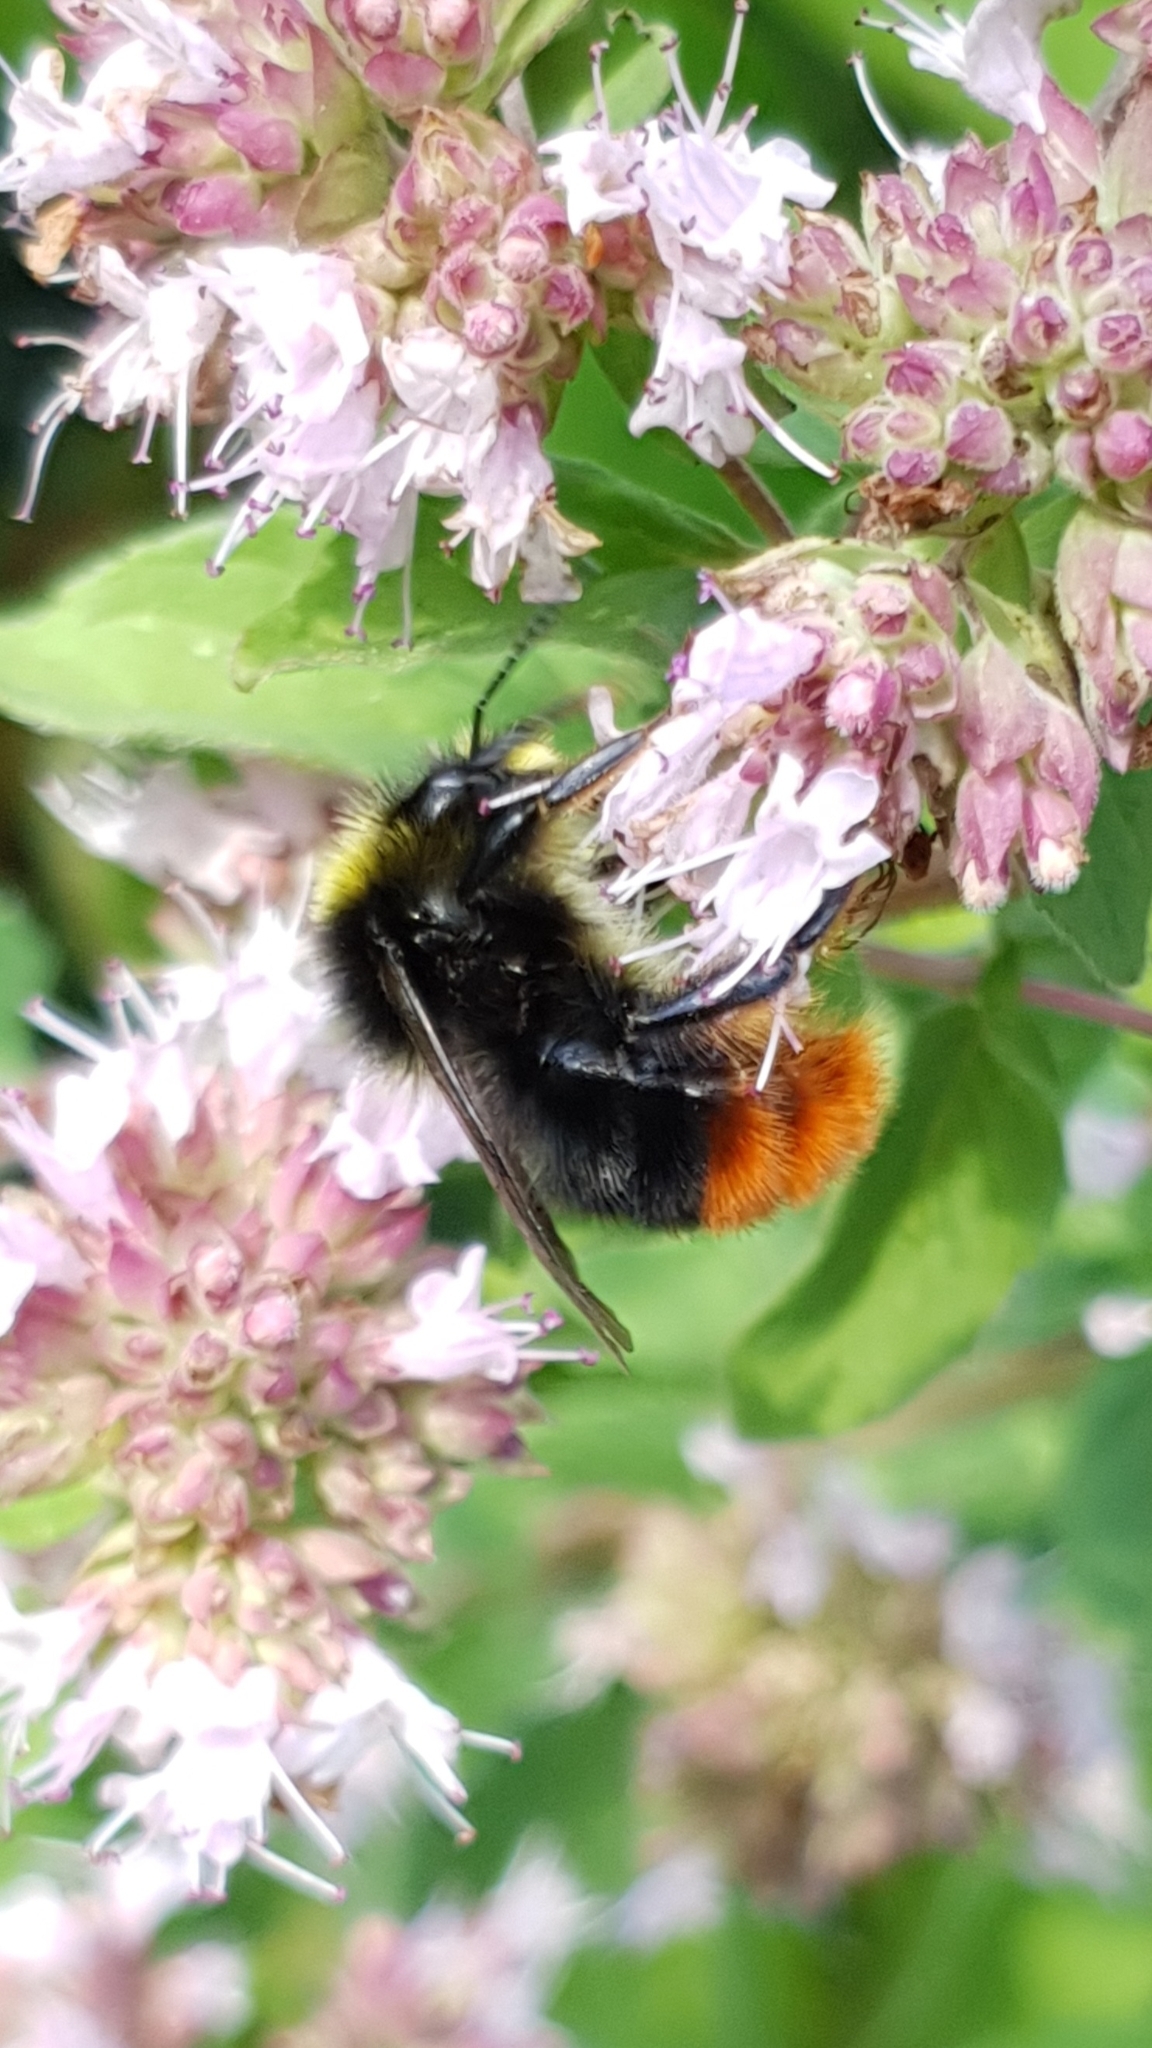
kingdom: Animalia
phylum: Arthropoda
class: Insecta
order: Hymenoptera
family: Apidae
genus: Bombus
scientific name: Bombus lapidarius
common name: Large red-tailed humble-bee
